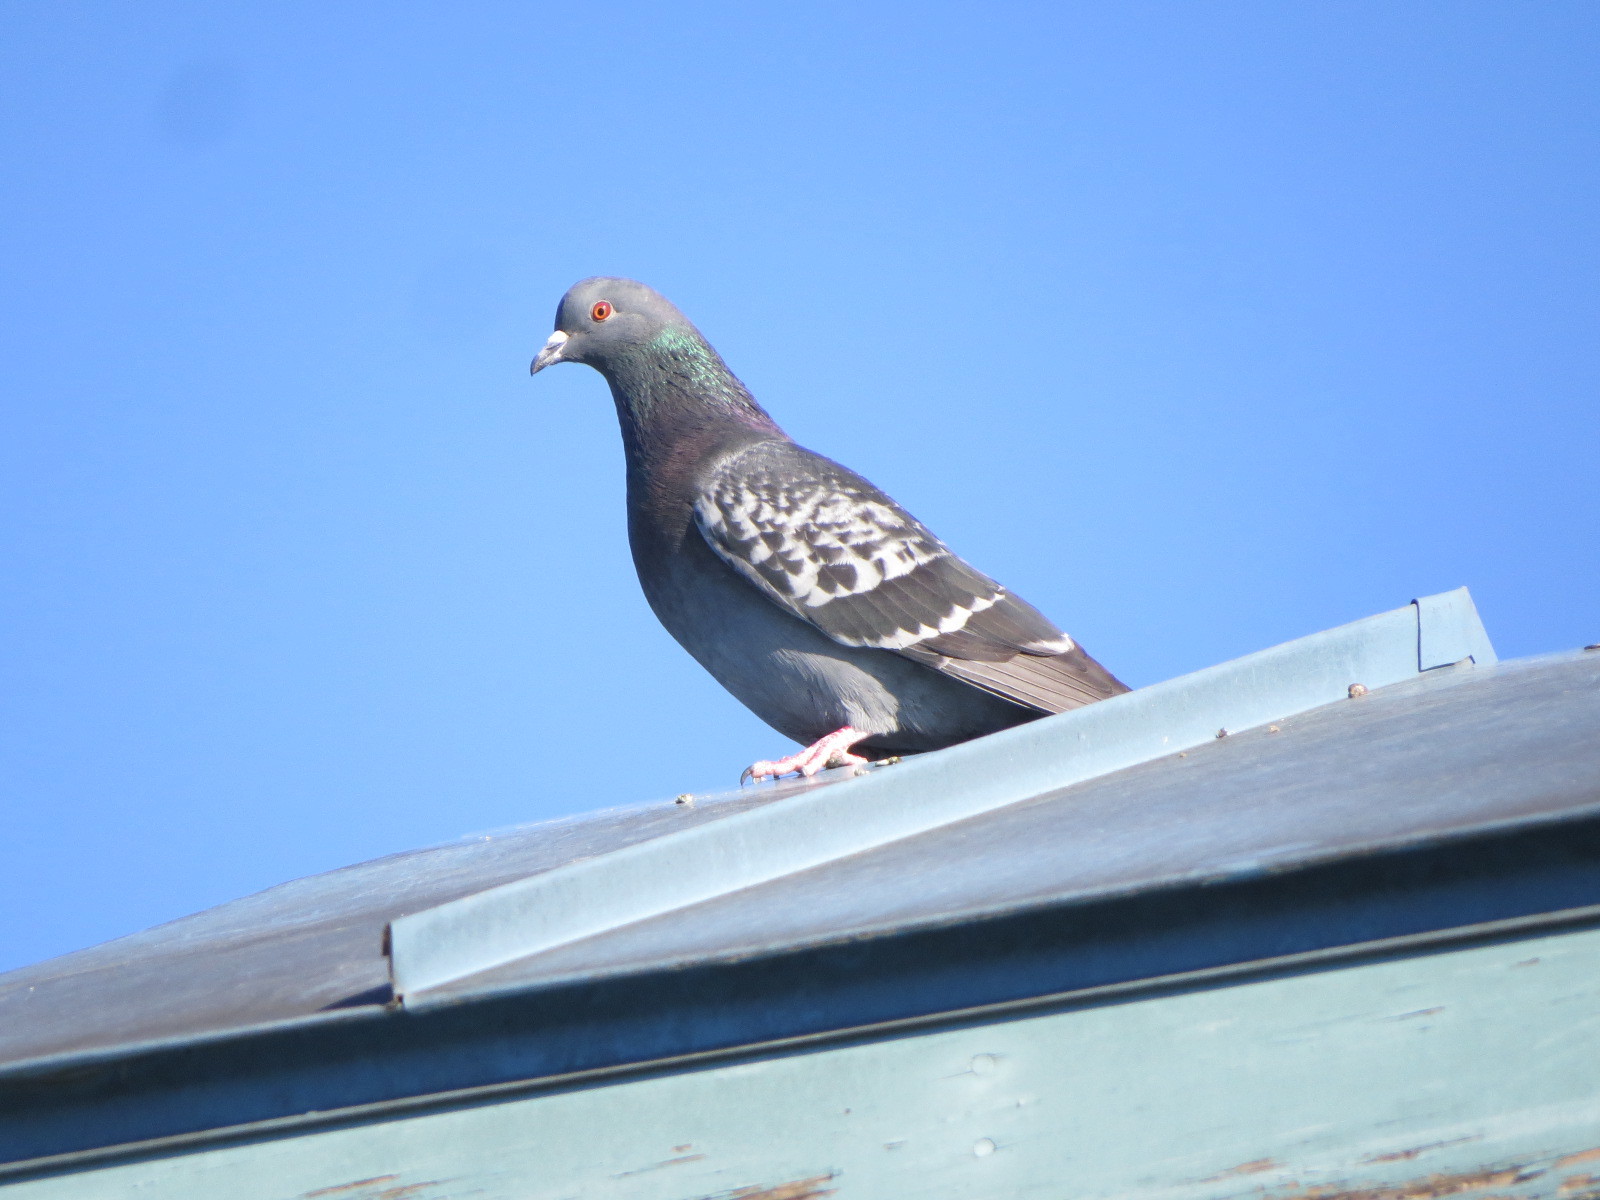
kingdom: Animalia
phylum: Chordata
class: Aves
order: Columbiformes
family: Columbidae
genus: Columba
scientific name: Columba livia
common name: Rock pigeon
